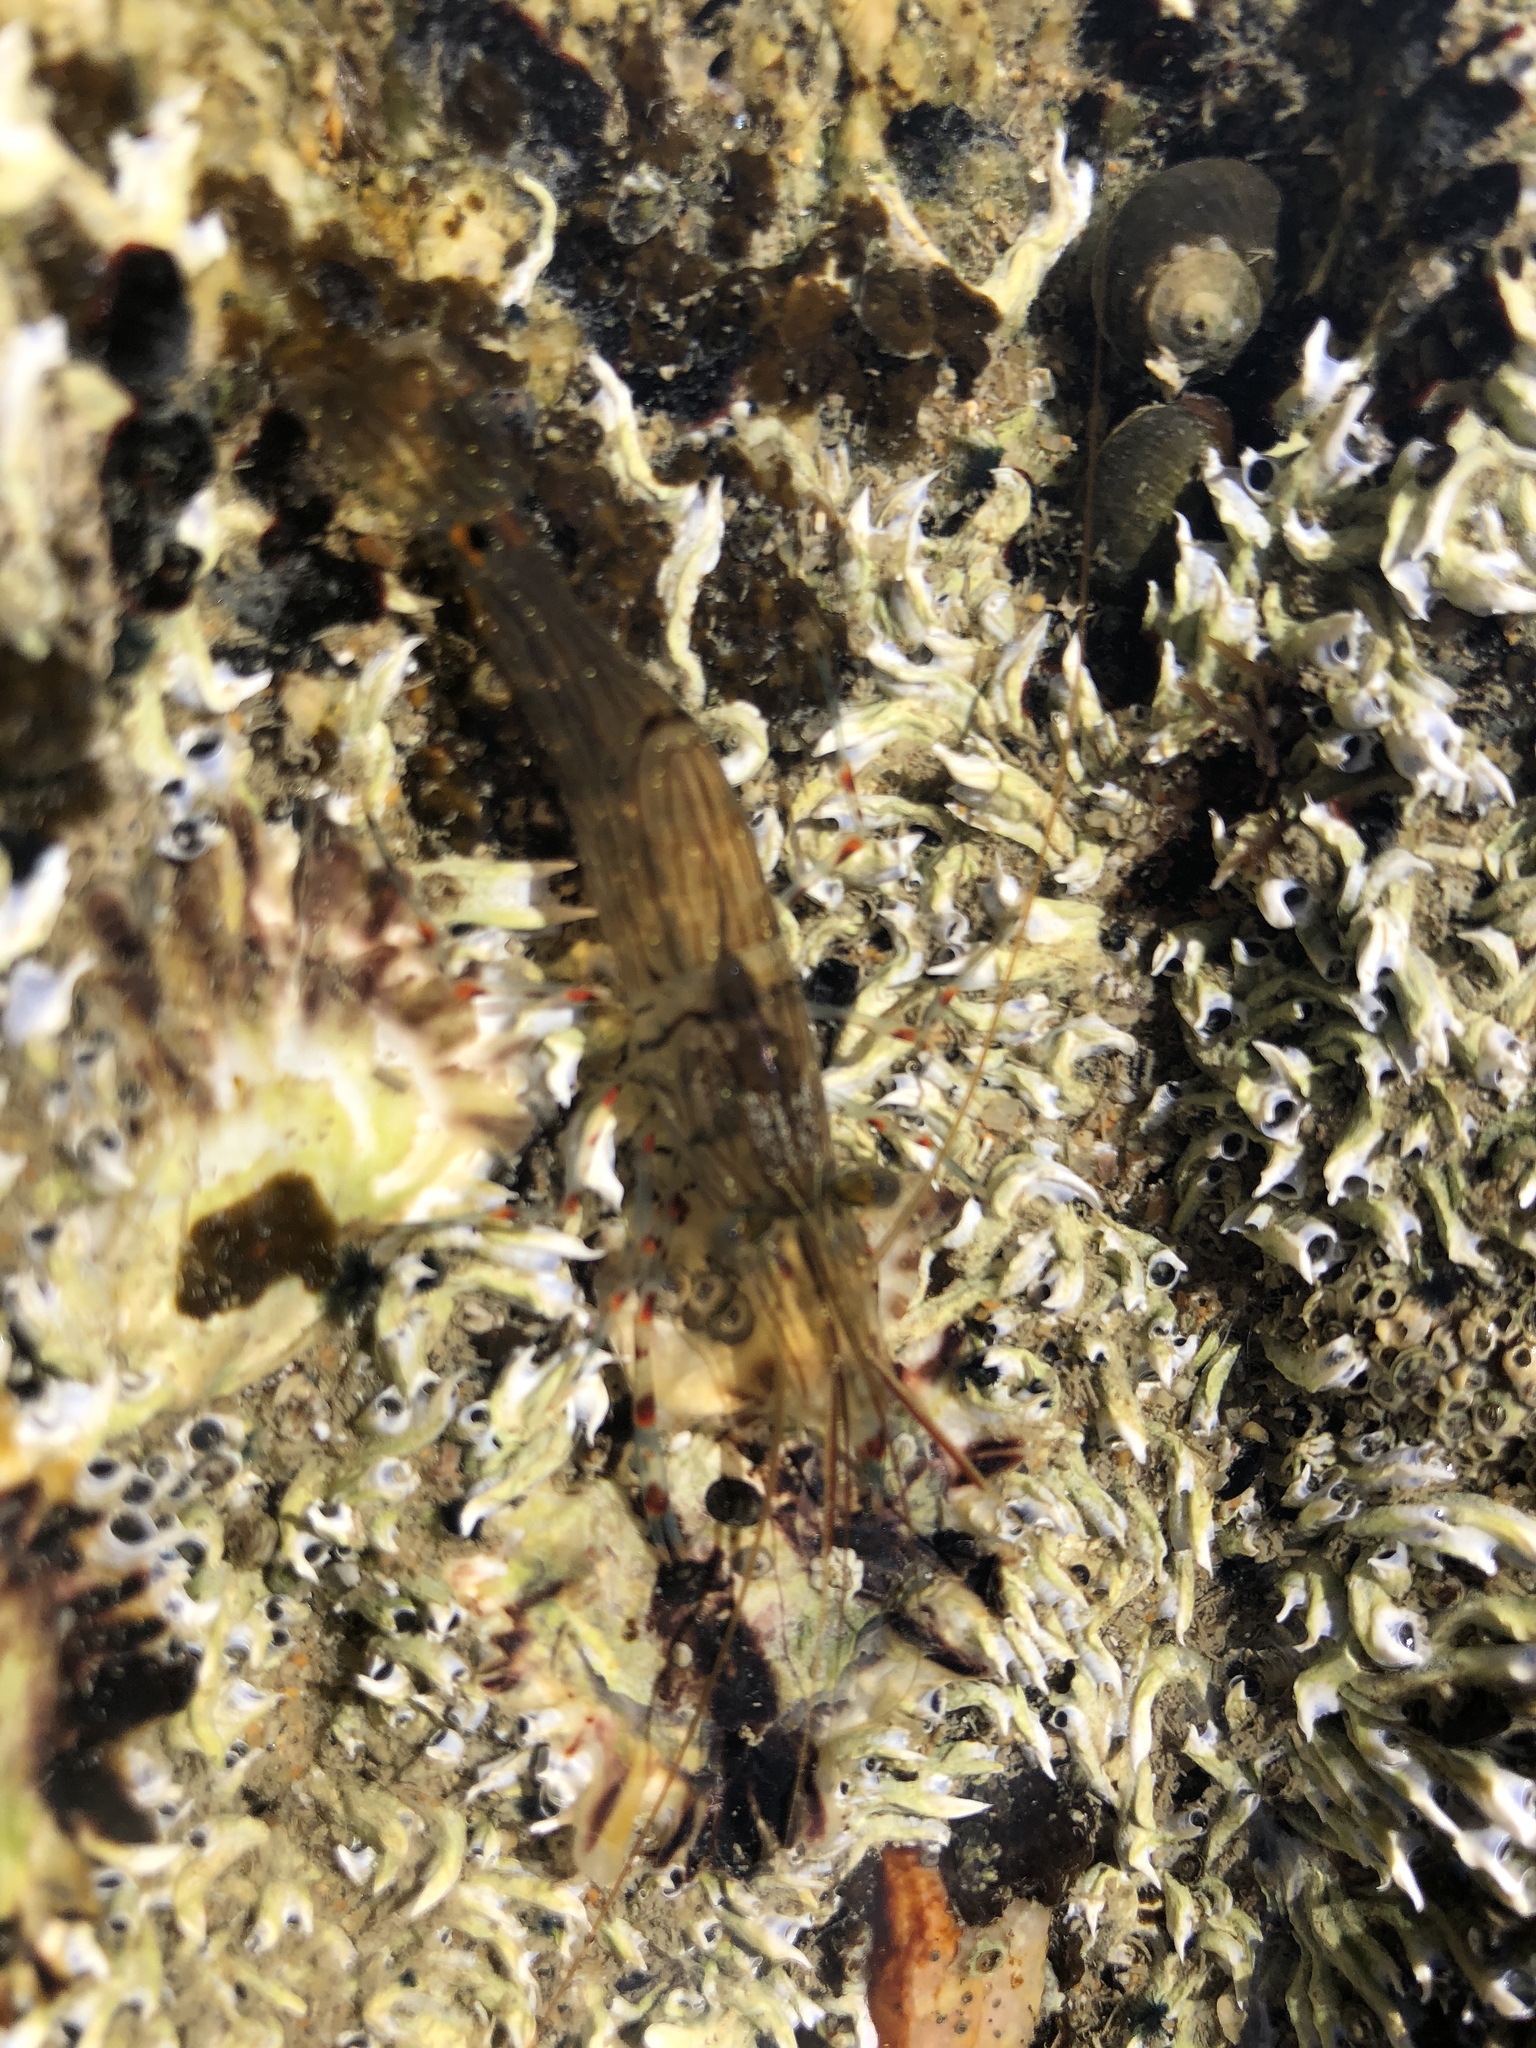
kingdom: Animalia
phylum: Arthropoda
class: Malacostraca
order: Decapoda
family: Palaemonidae
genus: Palaemon
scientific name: Palaemon affinis
